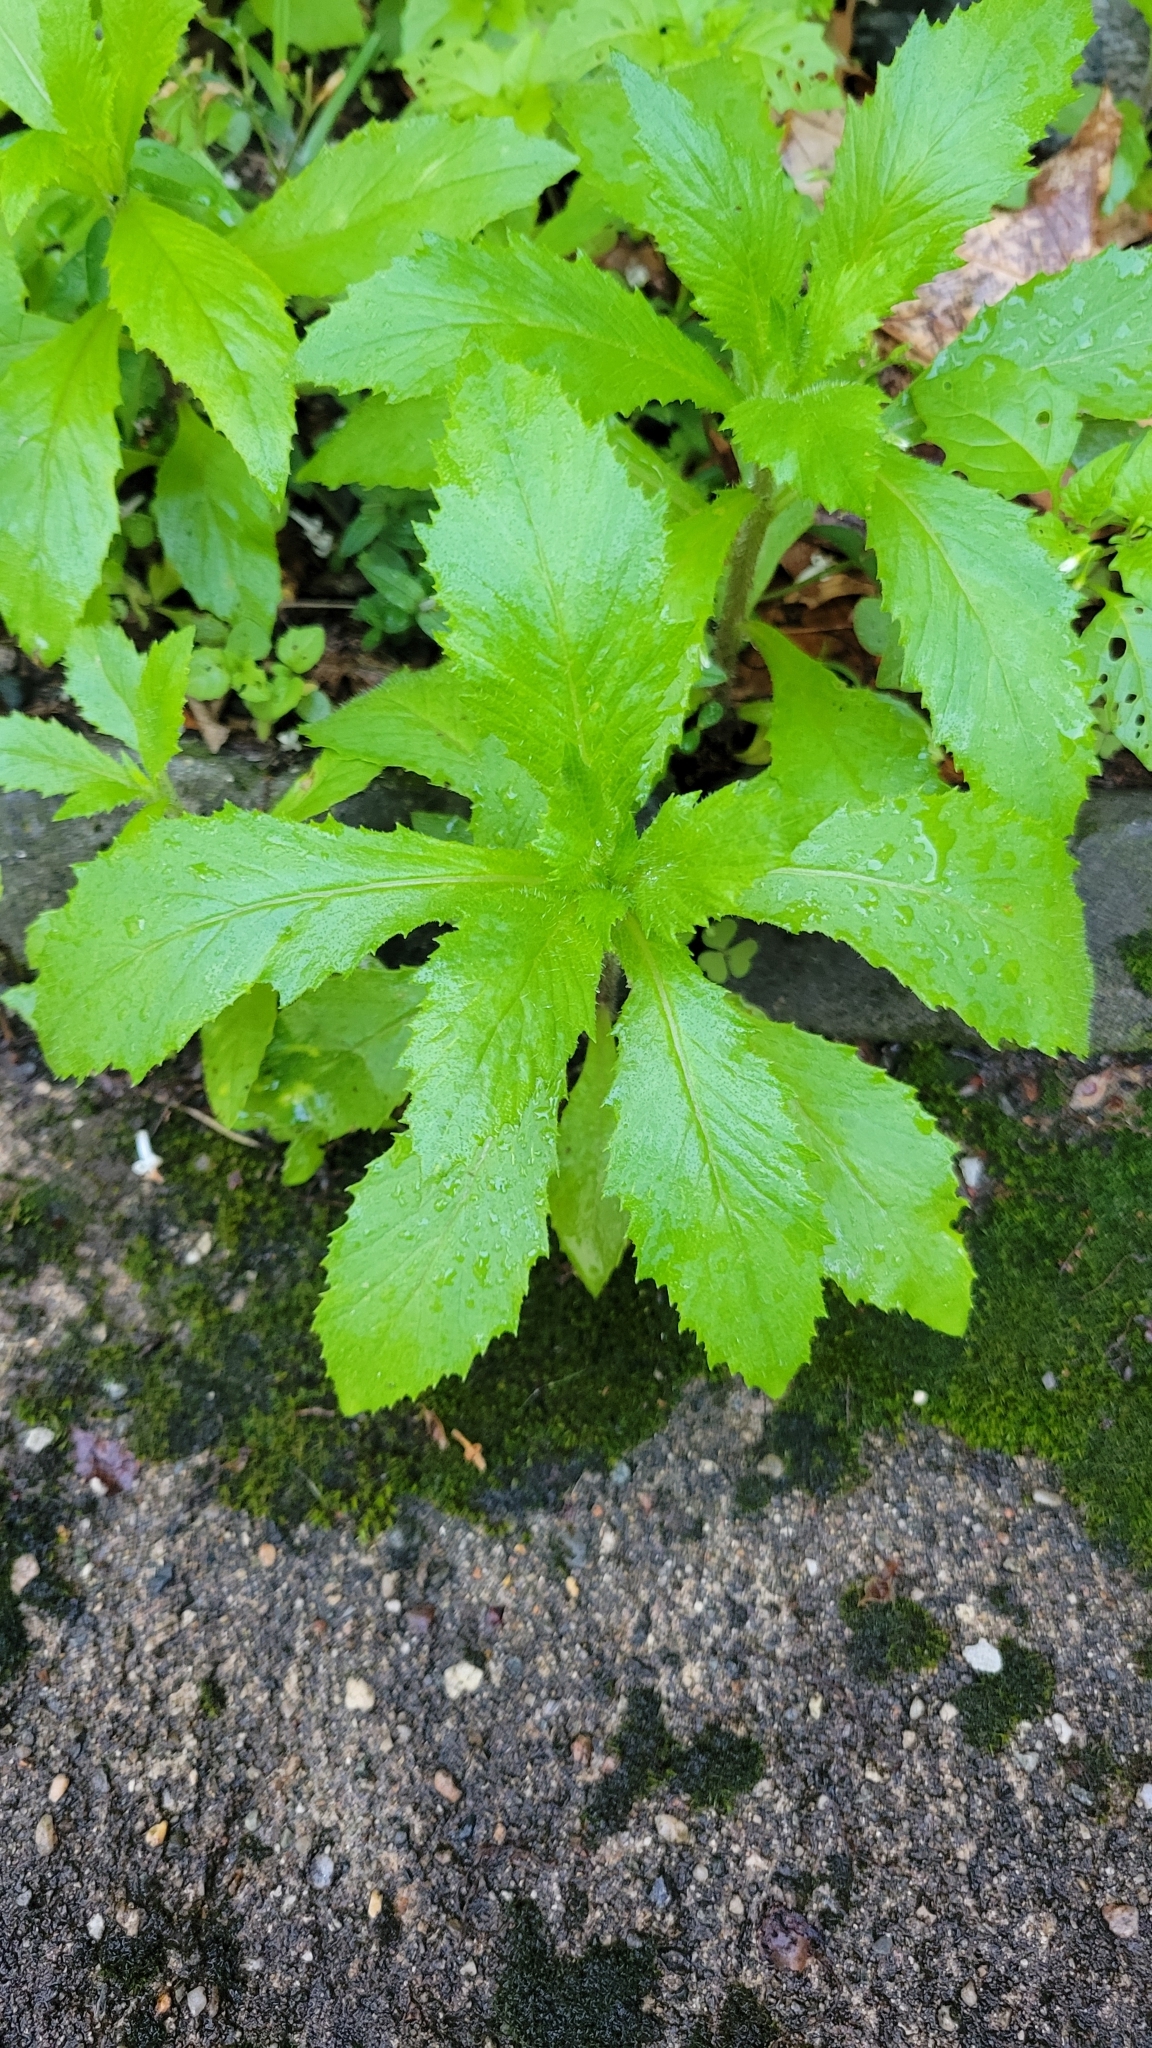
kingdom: Plantae
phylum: Tracheophyta
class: Magnoliopsida
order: Asterales
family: Asteraceae
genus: Erechtites
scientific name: Erechtites hieraciifolius
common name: American burnweed
